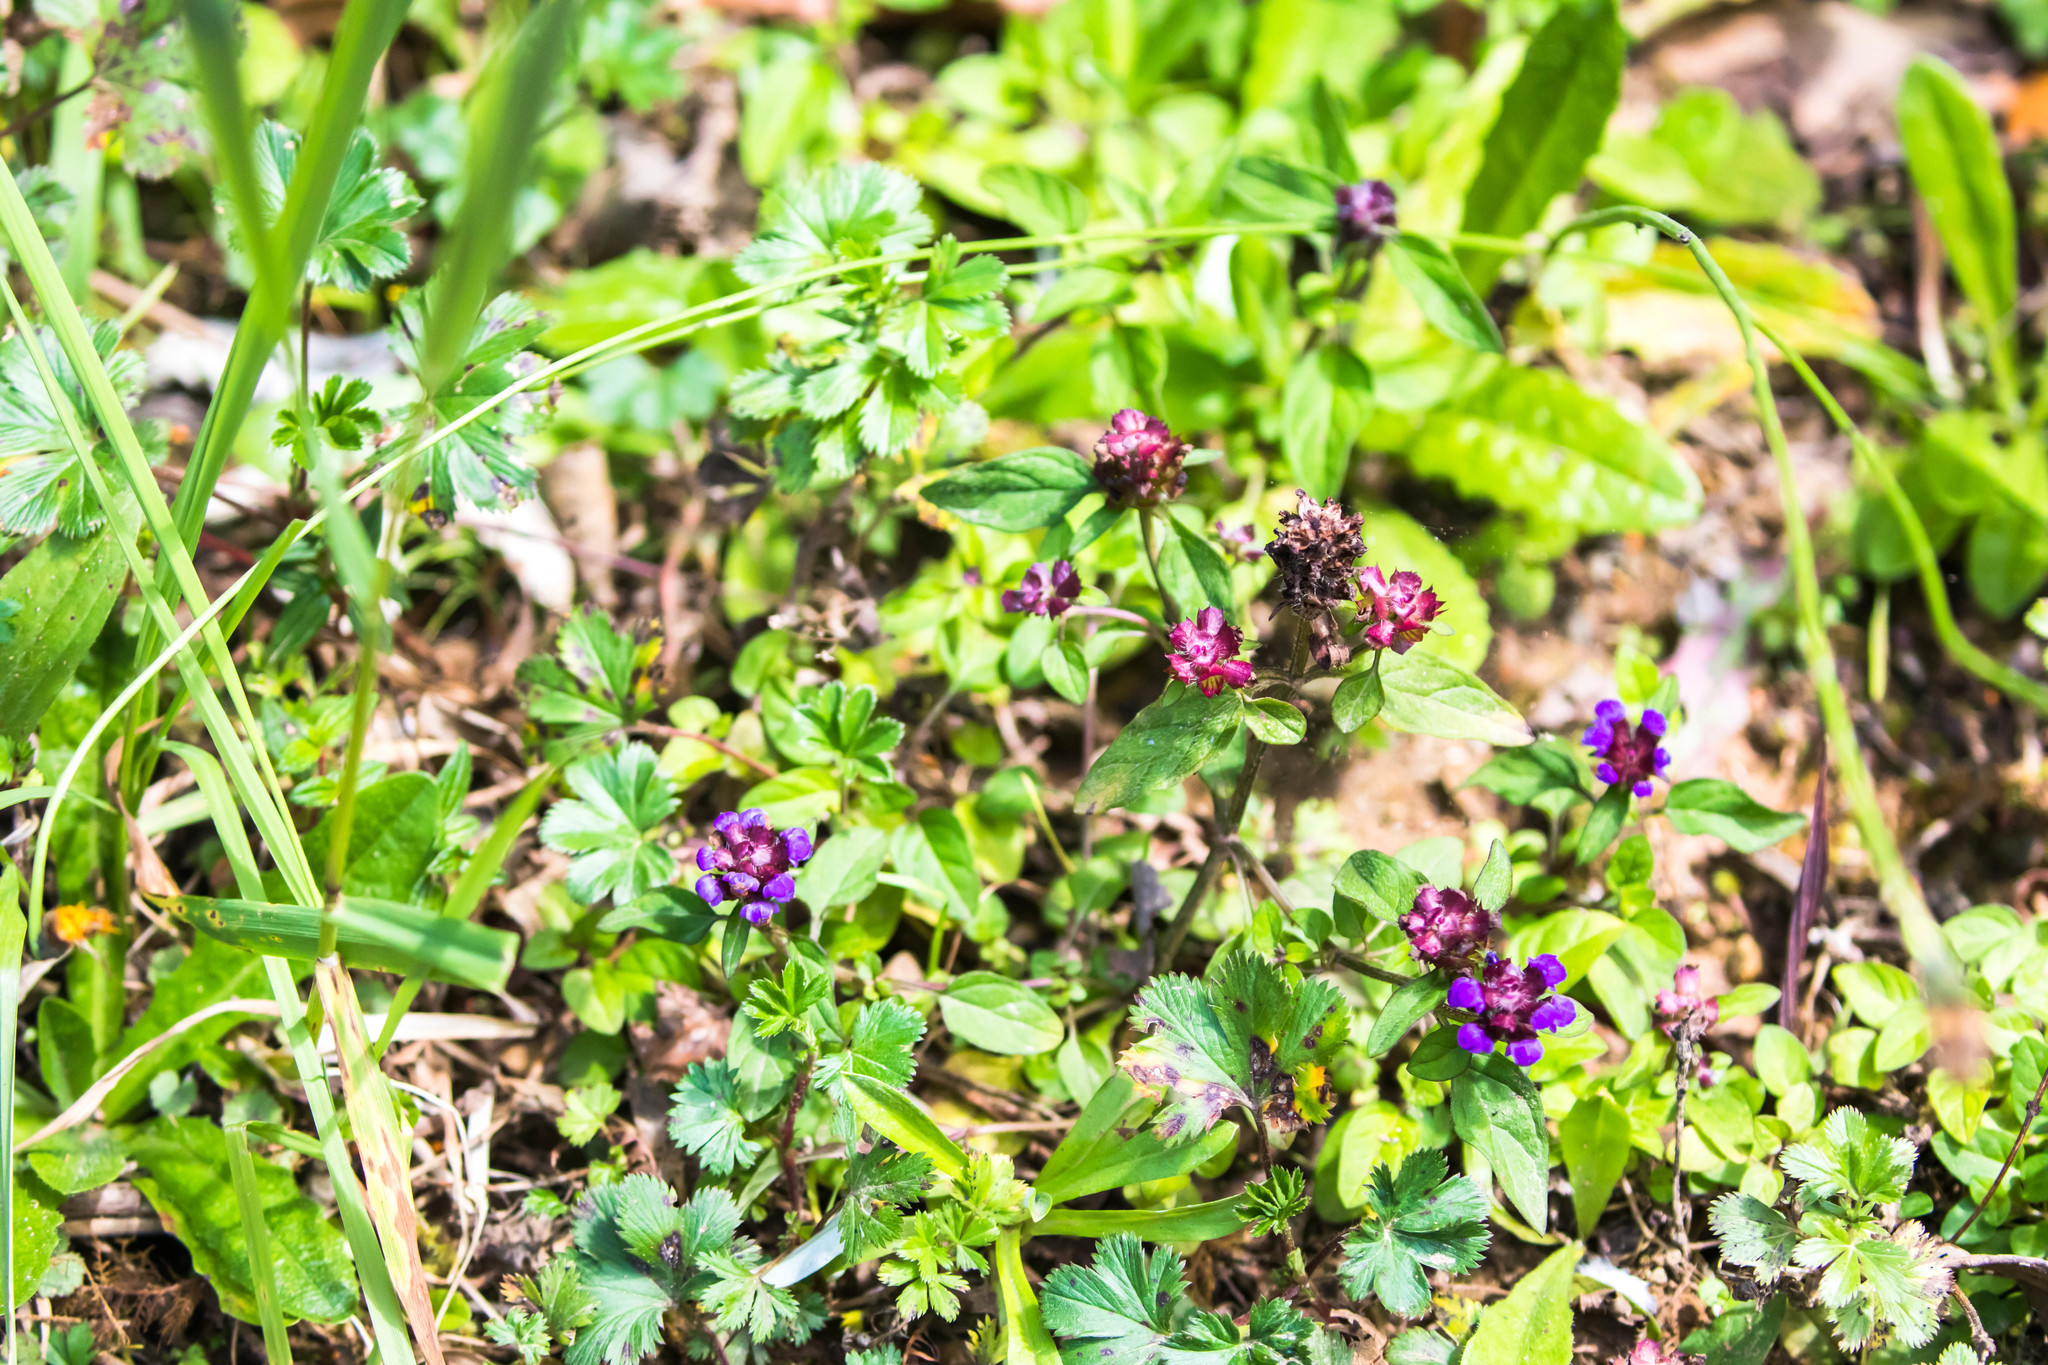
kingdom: Plantae
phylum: Tracheophyta
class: Magnoliopsida
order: Lamiales
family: Lamiaceae
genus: Prunella
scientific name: Prunella vulgaris
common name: Heal-all
